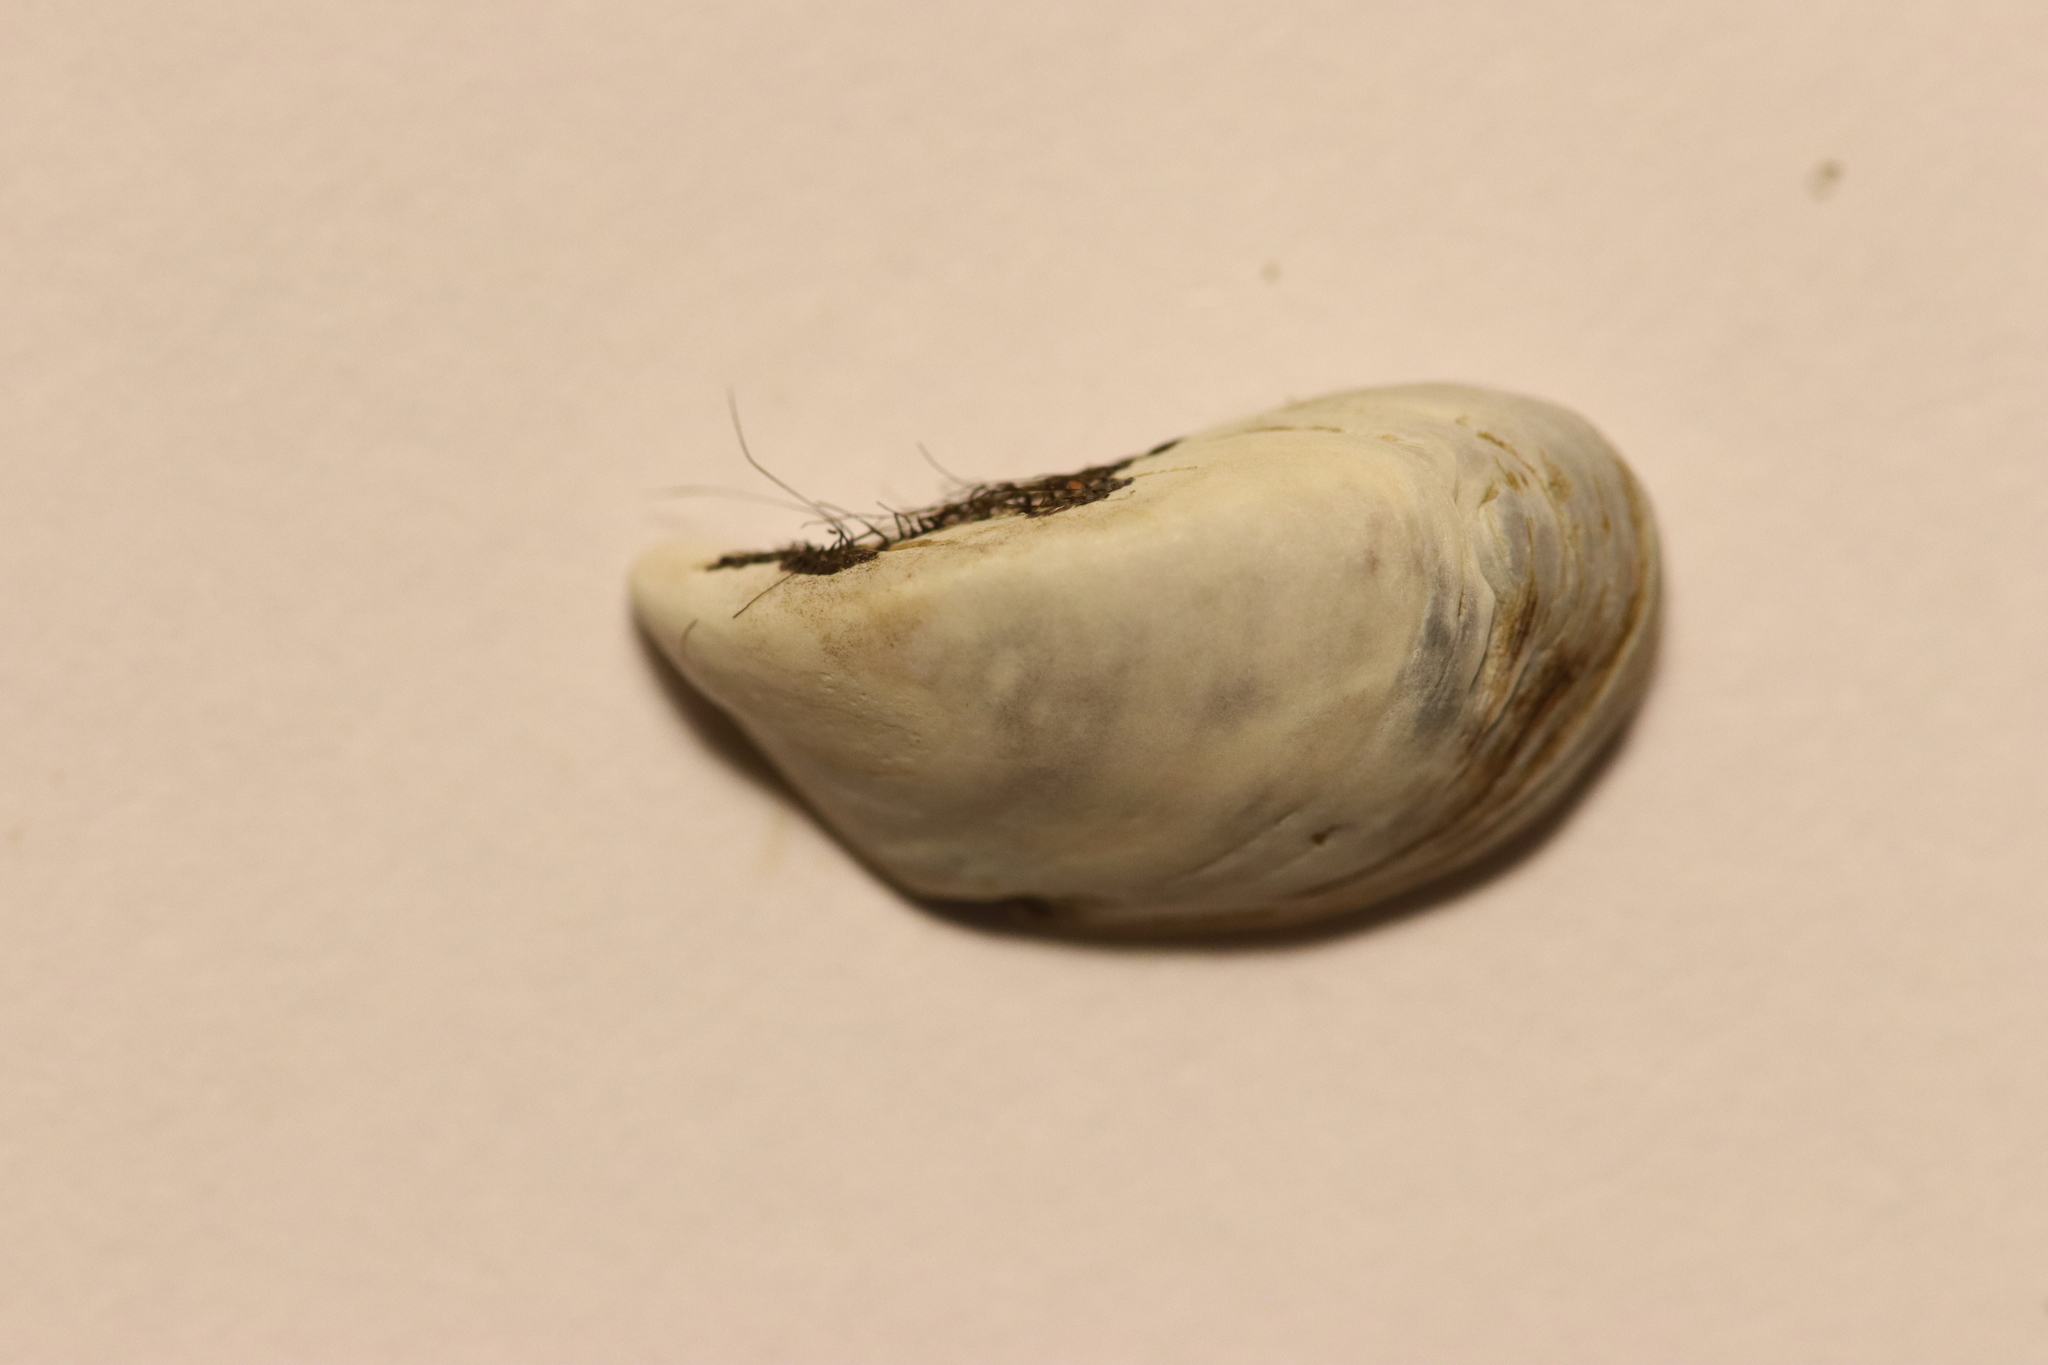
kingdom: Animalia
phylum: Mollusca
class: Bivalvia
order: Myida
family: Dreissenidae
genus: Dreissena
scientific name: Dreissena polymorpha
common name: Zebra mussel
